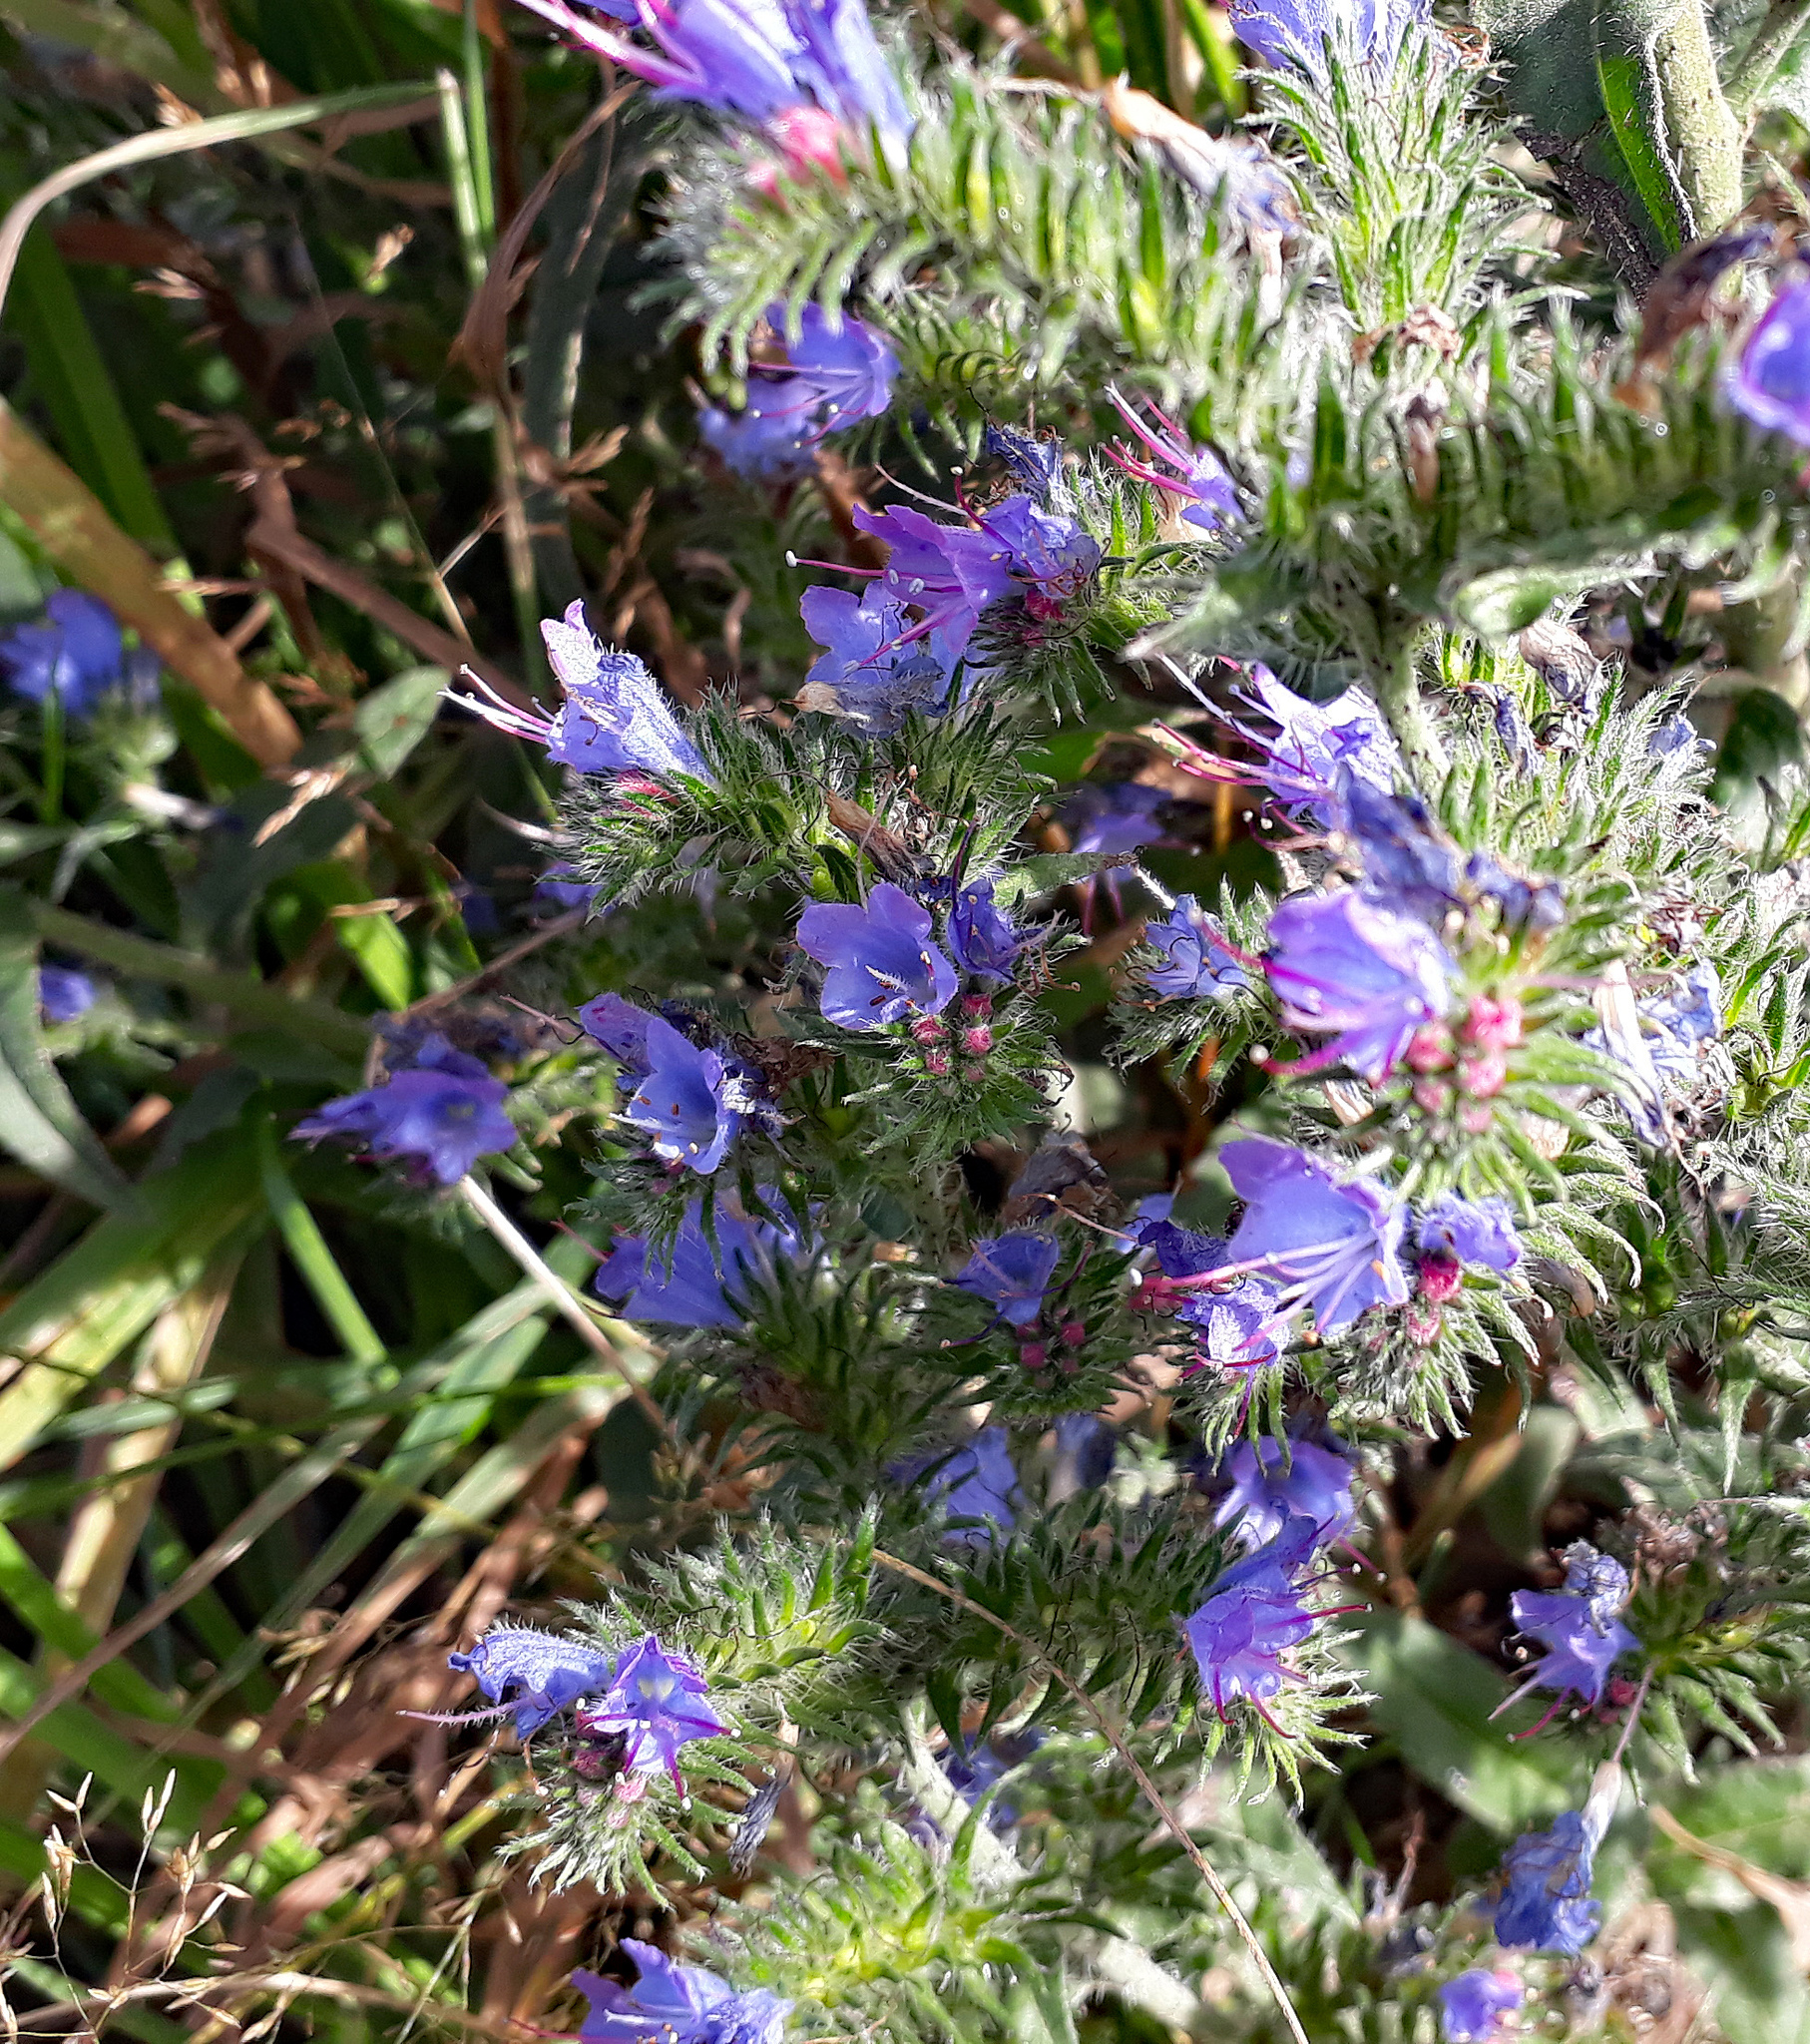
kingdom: Plantae
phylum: Tracheophyta
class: Magnoliopsida
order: Boraginales
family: Boraginaceae
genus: Echium
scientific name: Echium vulgare
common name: Common viper's bugloss
